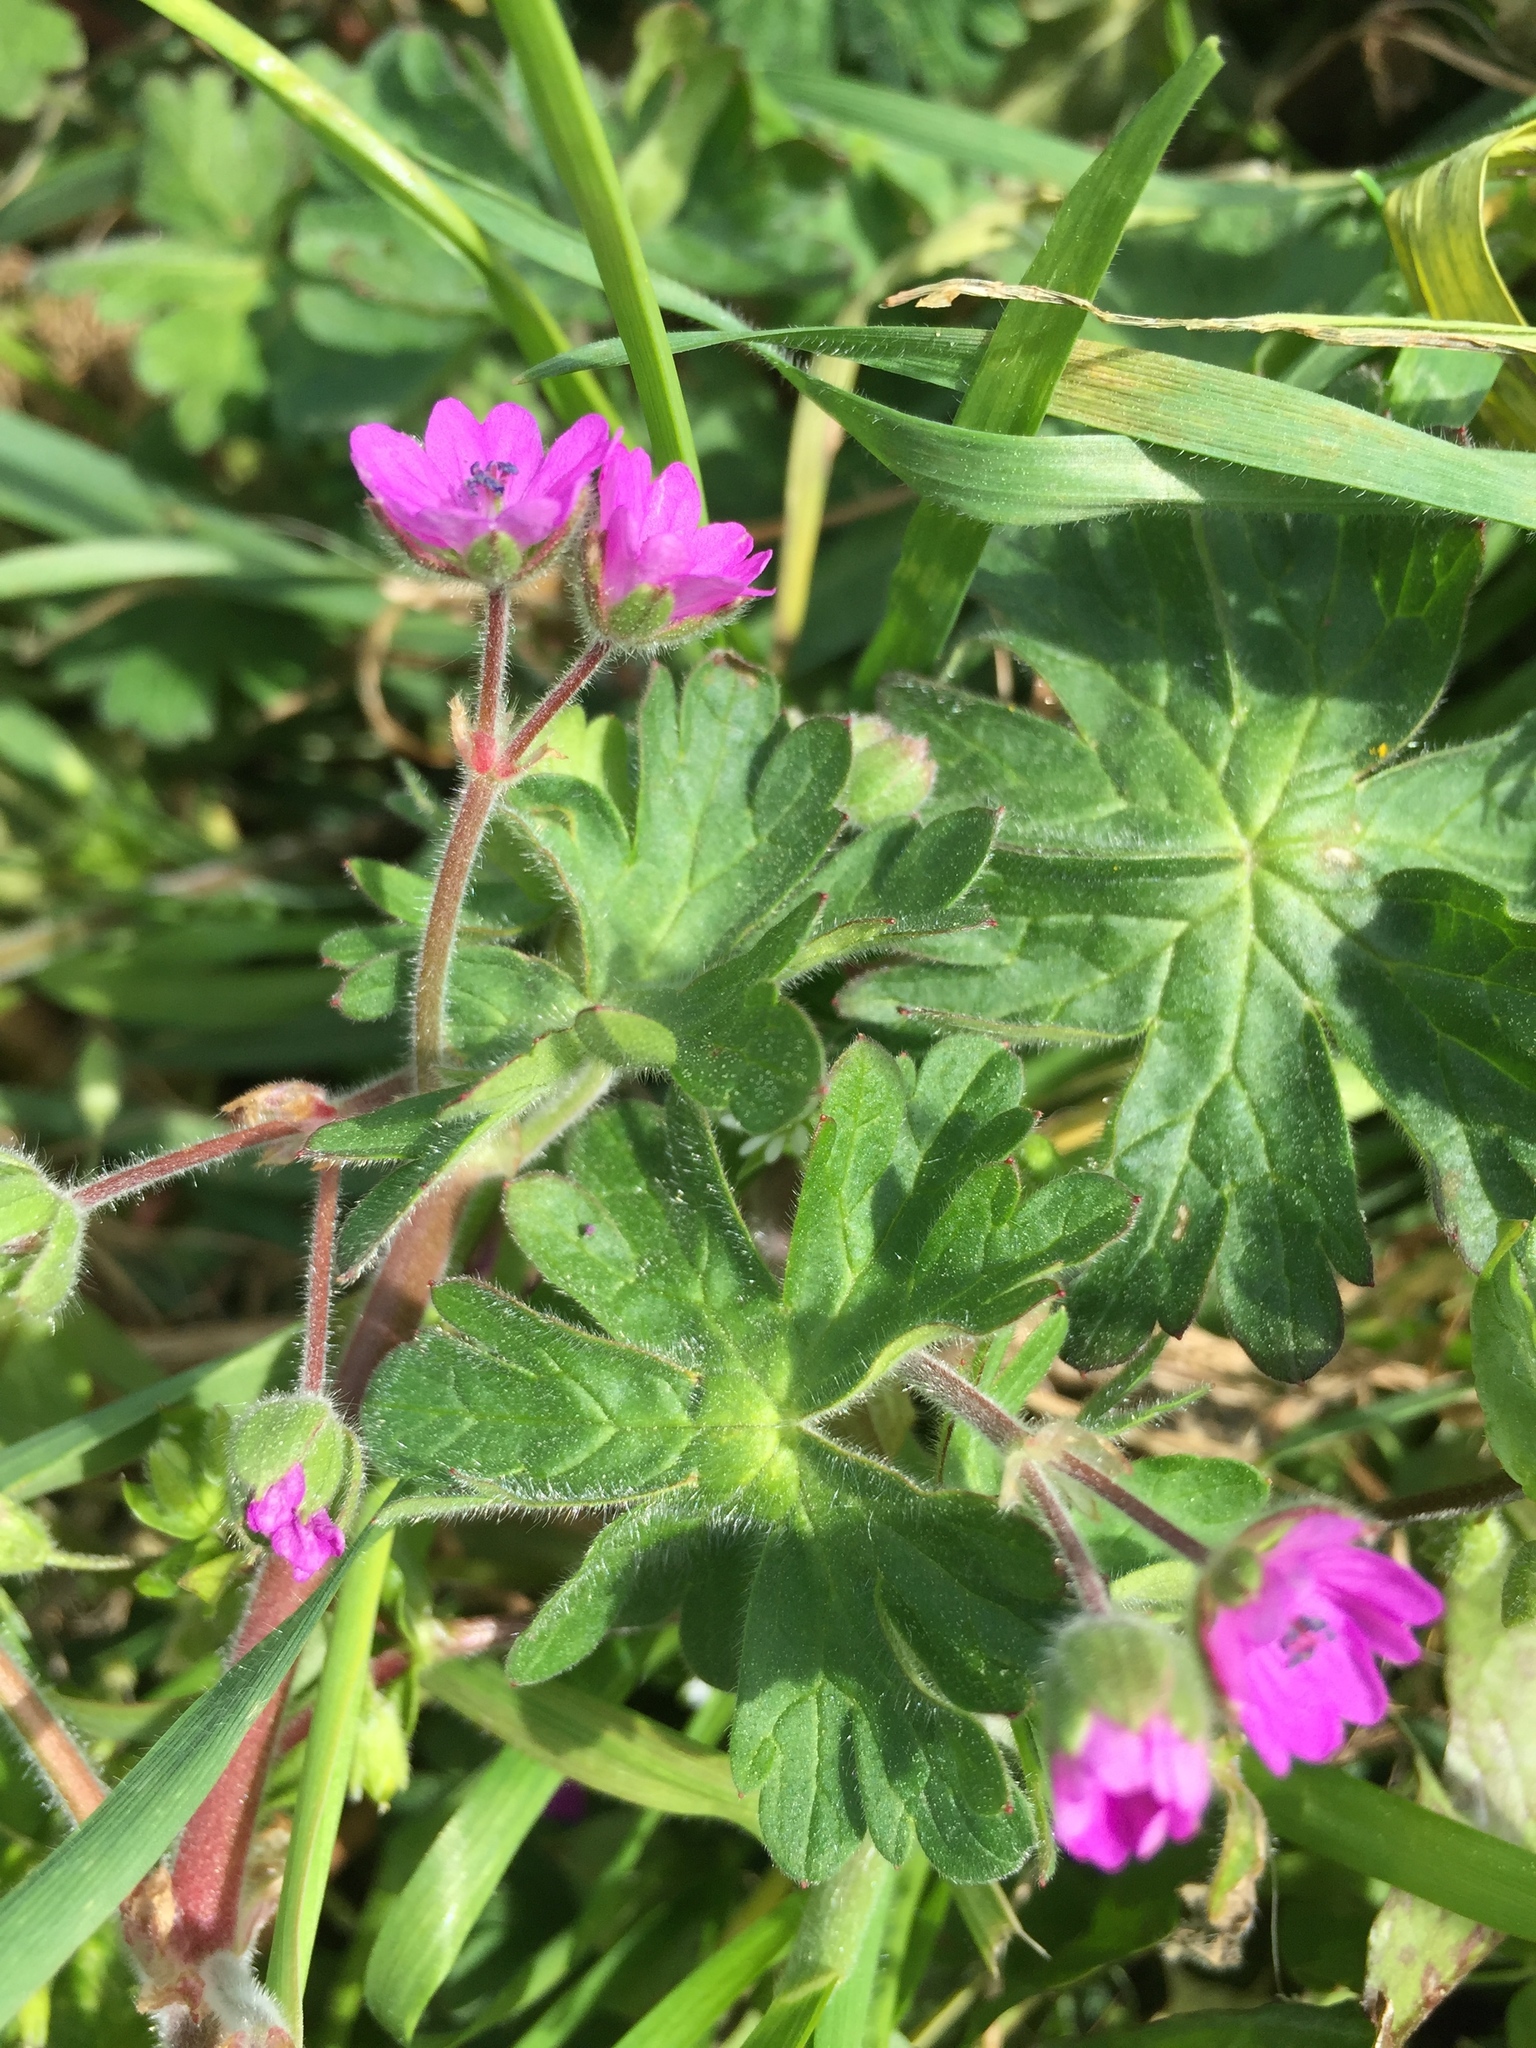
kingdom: Plantae
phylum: Tracheophyta
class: Magnoliopsida
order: Geraniales
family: Geraniaceae
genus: Geranium
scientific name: Geranium molle
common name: Dove's-foot crane's-bill
